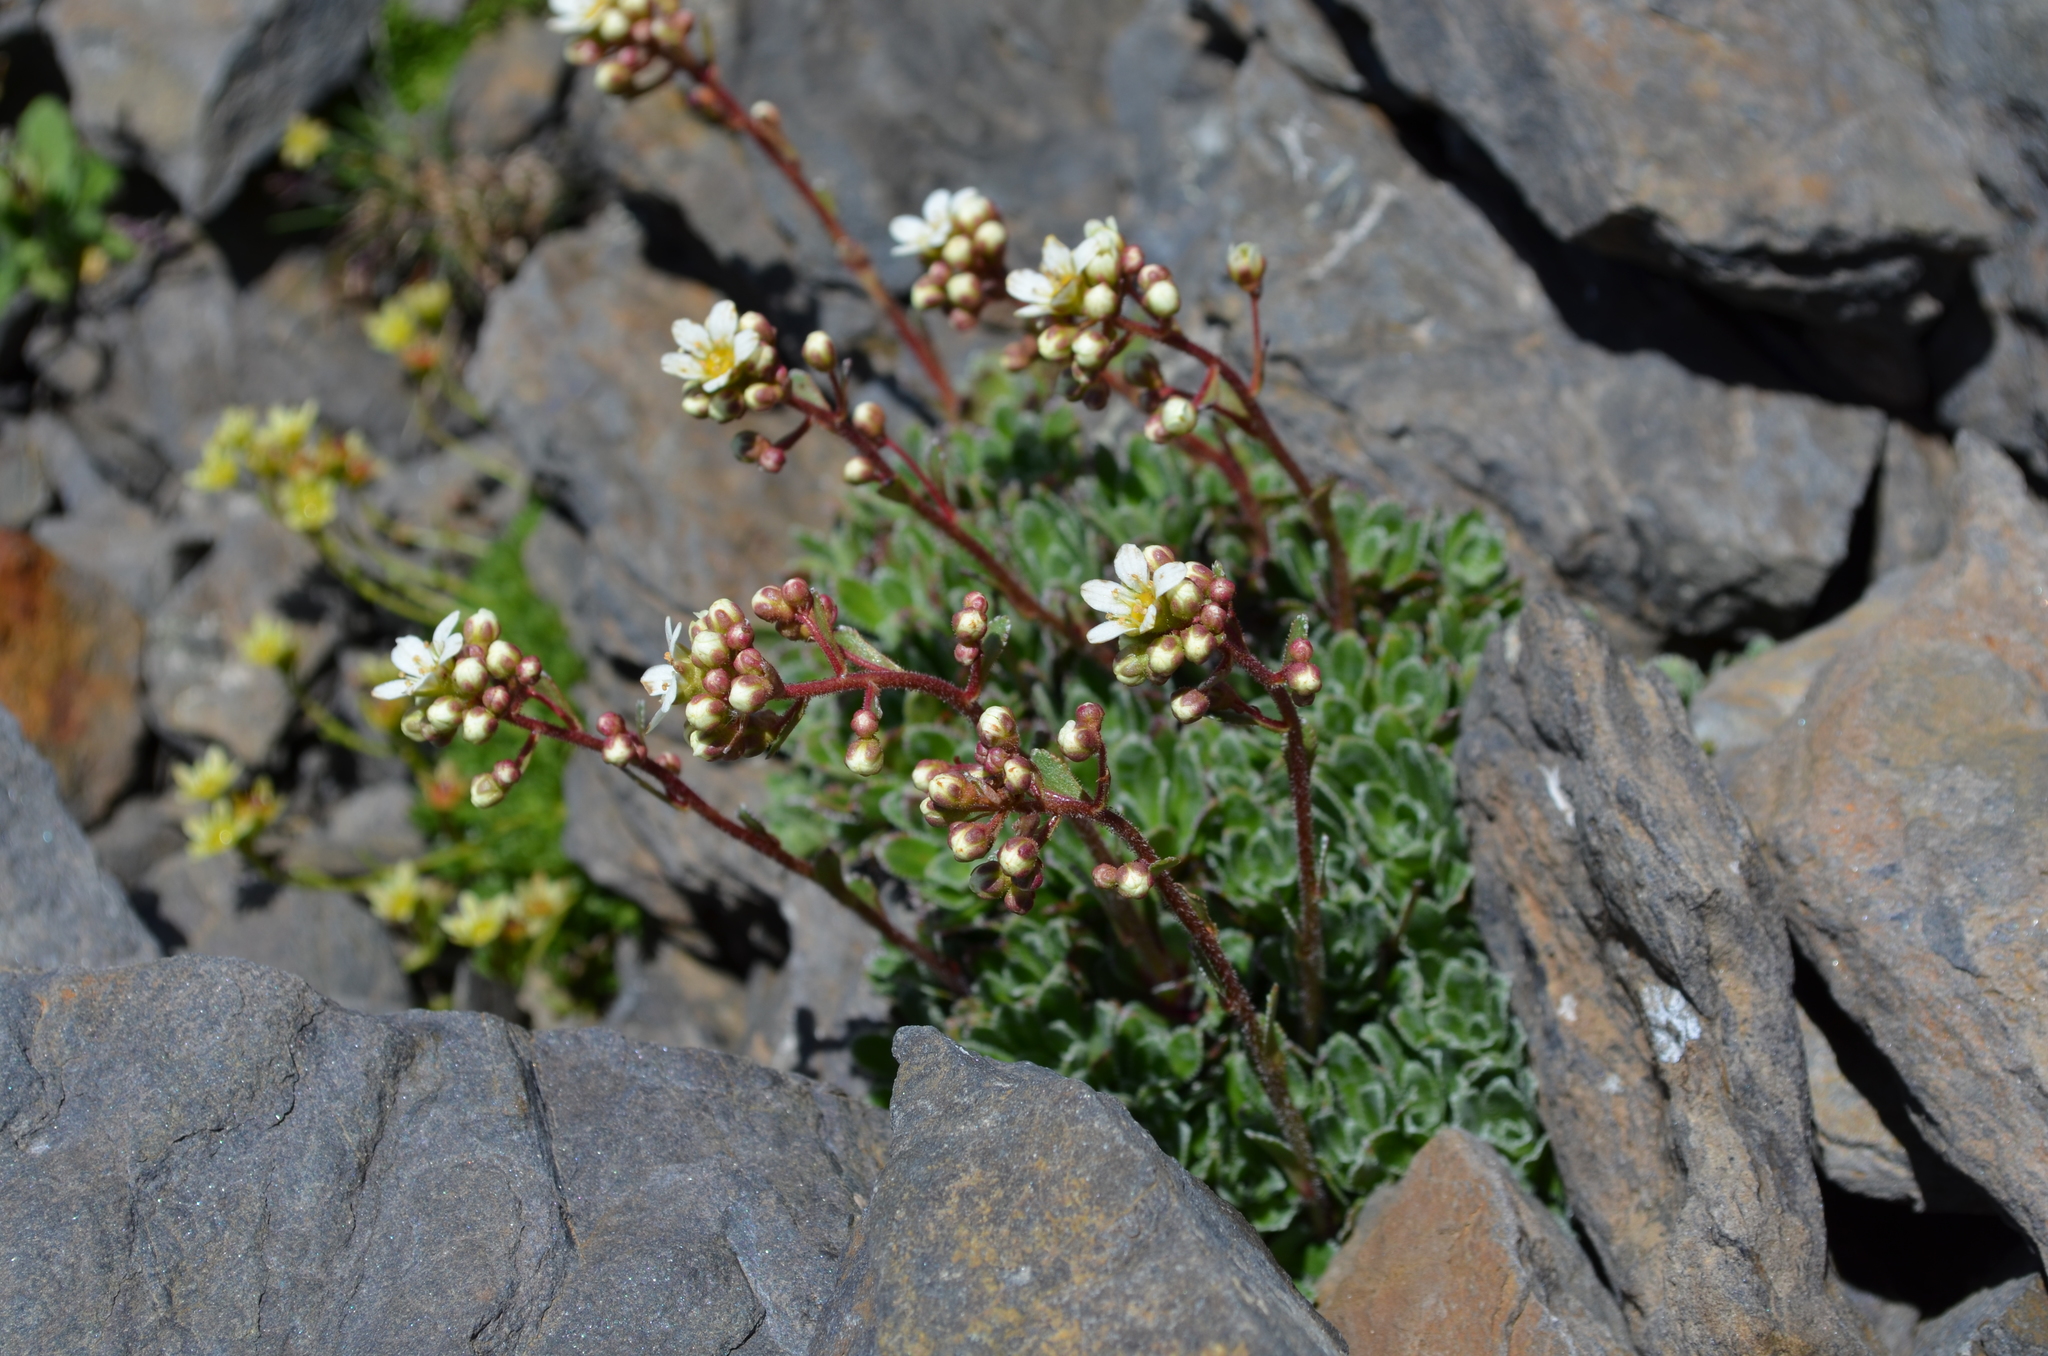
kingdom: Plantae
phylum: Tracheophyta
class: Magnoliopsida
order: Saxifragales
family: Saxifragaceae
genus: Saxifraga
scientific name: Saxifraga paniculata
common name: Livelong saxifrage
